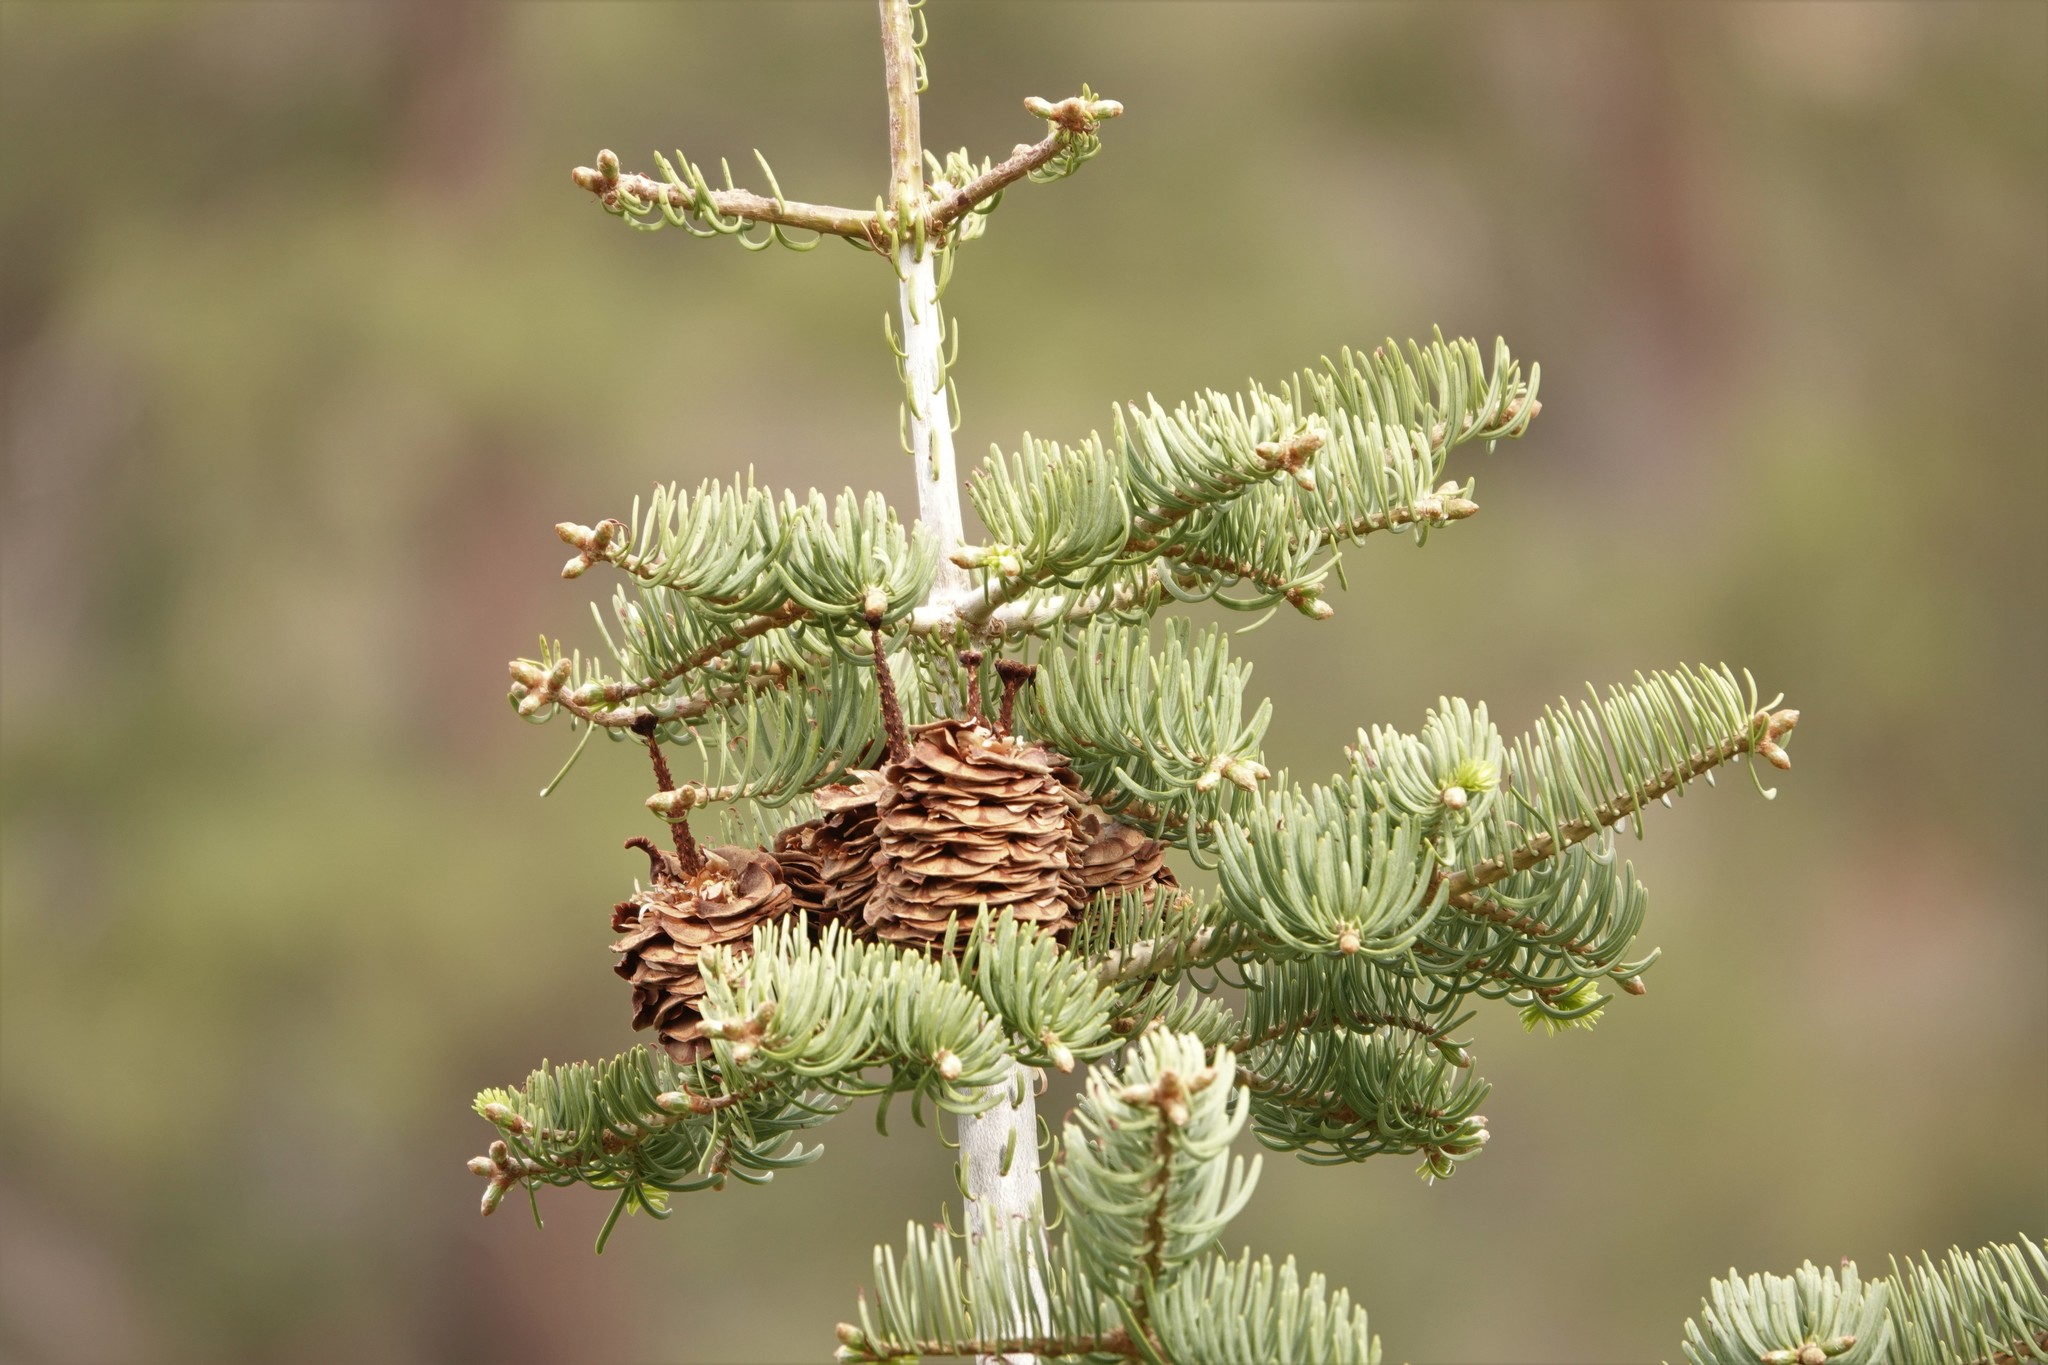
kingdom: Plantae
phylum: Tracheophyta
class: Pinopsida
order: Pinales
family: Pinaceae
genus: Abies
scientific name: Abies concolor
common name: Colorado fir
